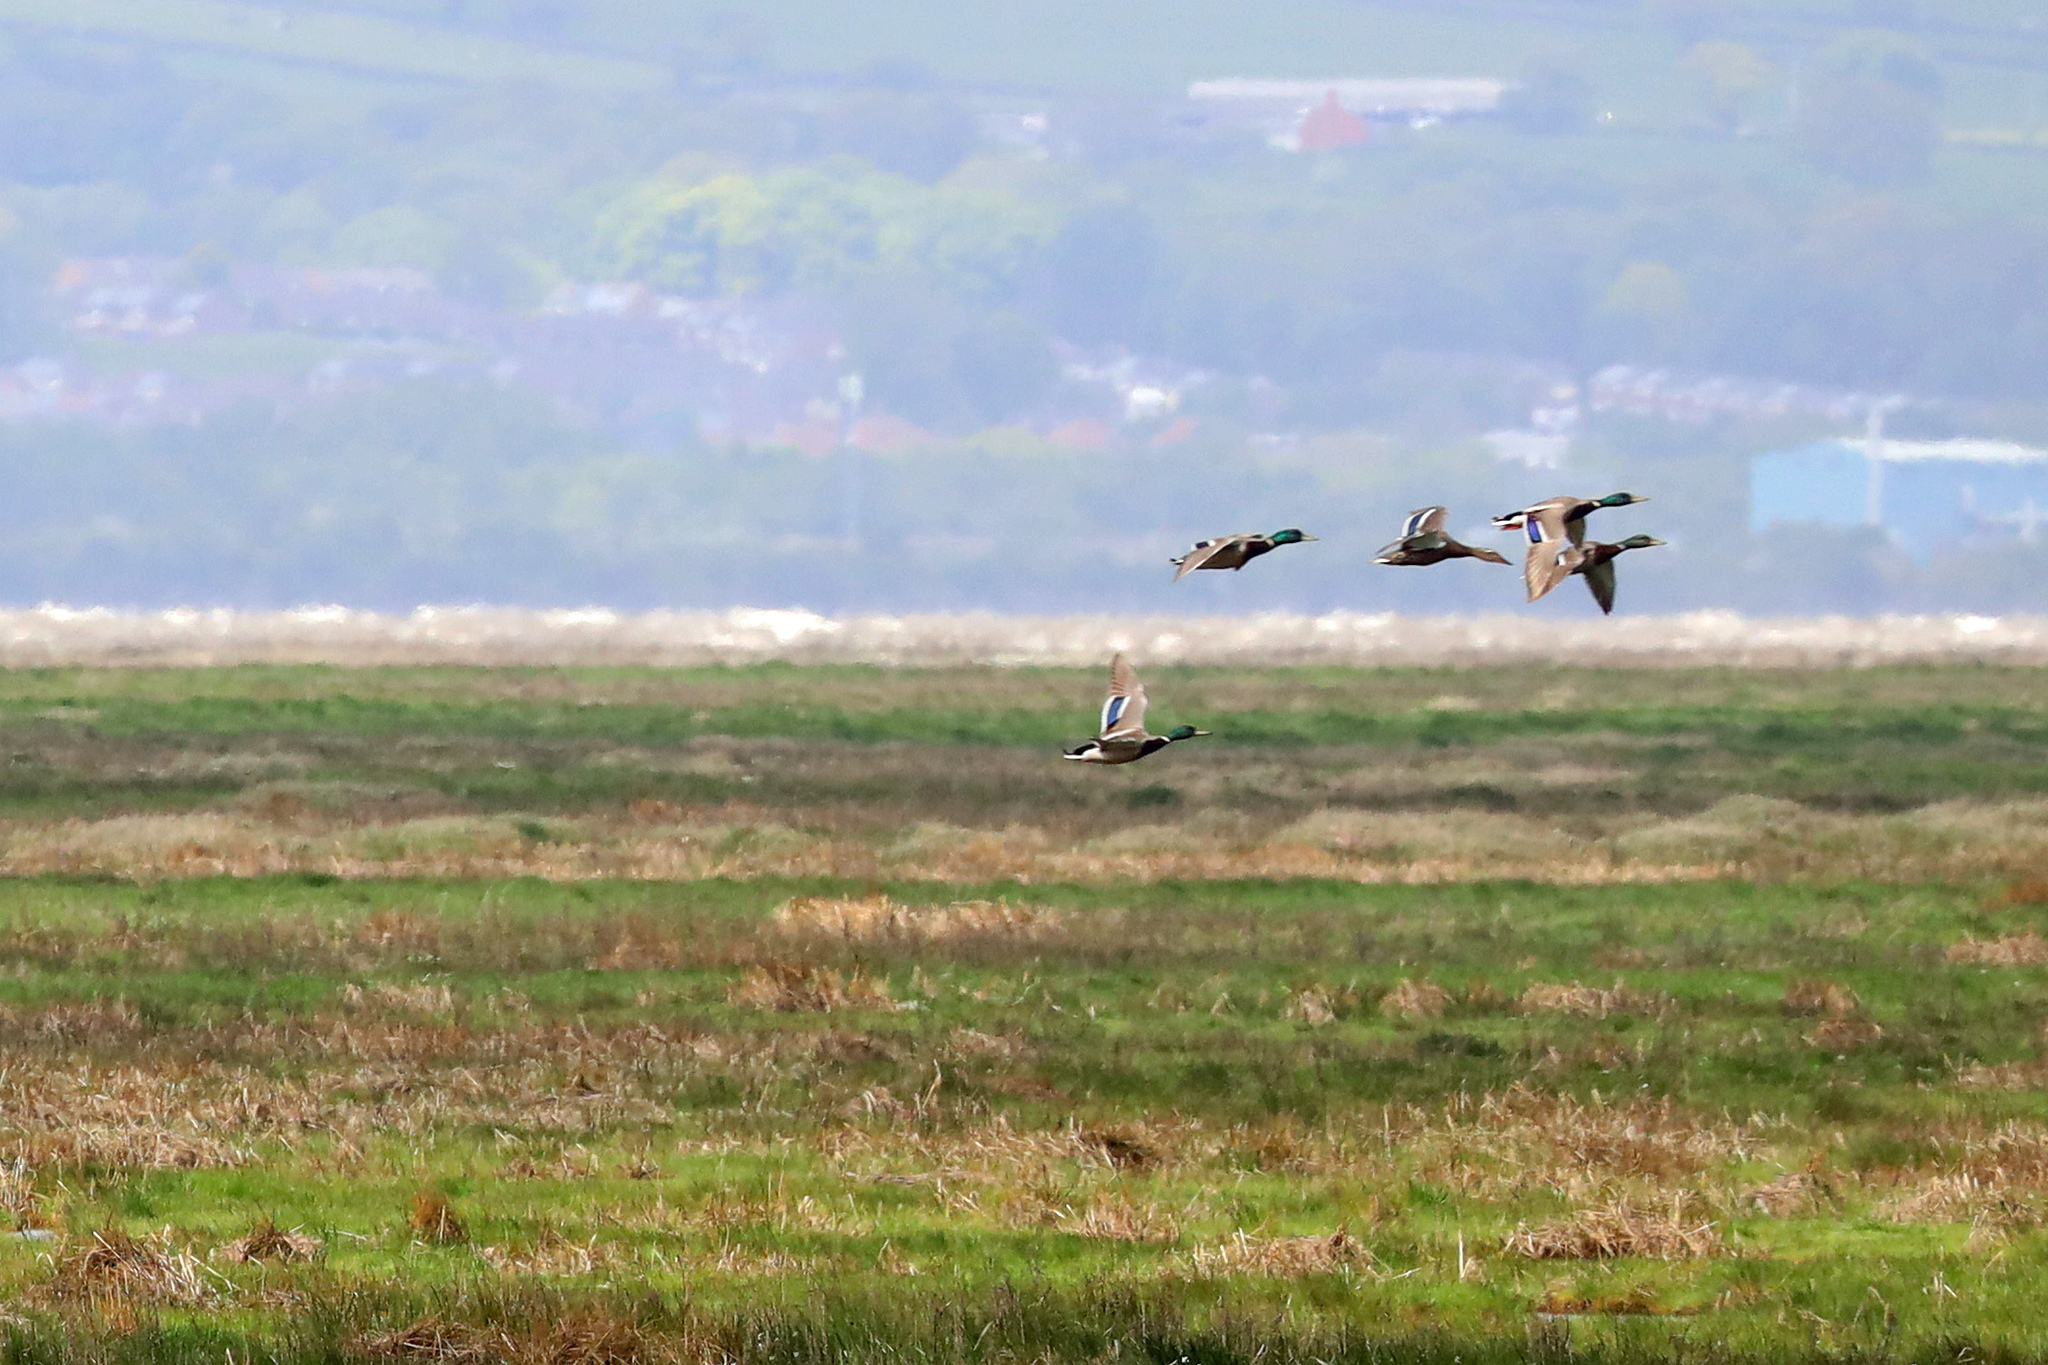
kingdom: Animalia
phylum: Chordata
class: Aves
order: Anseriformes
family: Anatidae
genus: Anas
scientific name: Anas platyrhynchos
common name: Mallard
